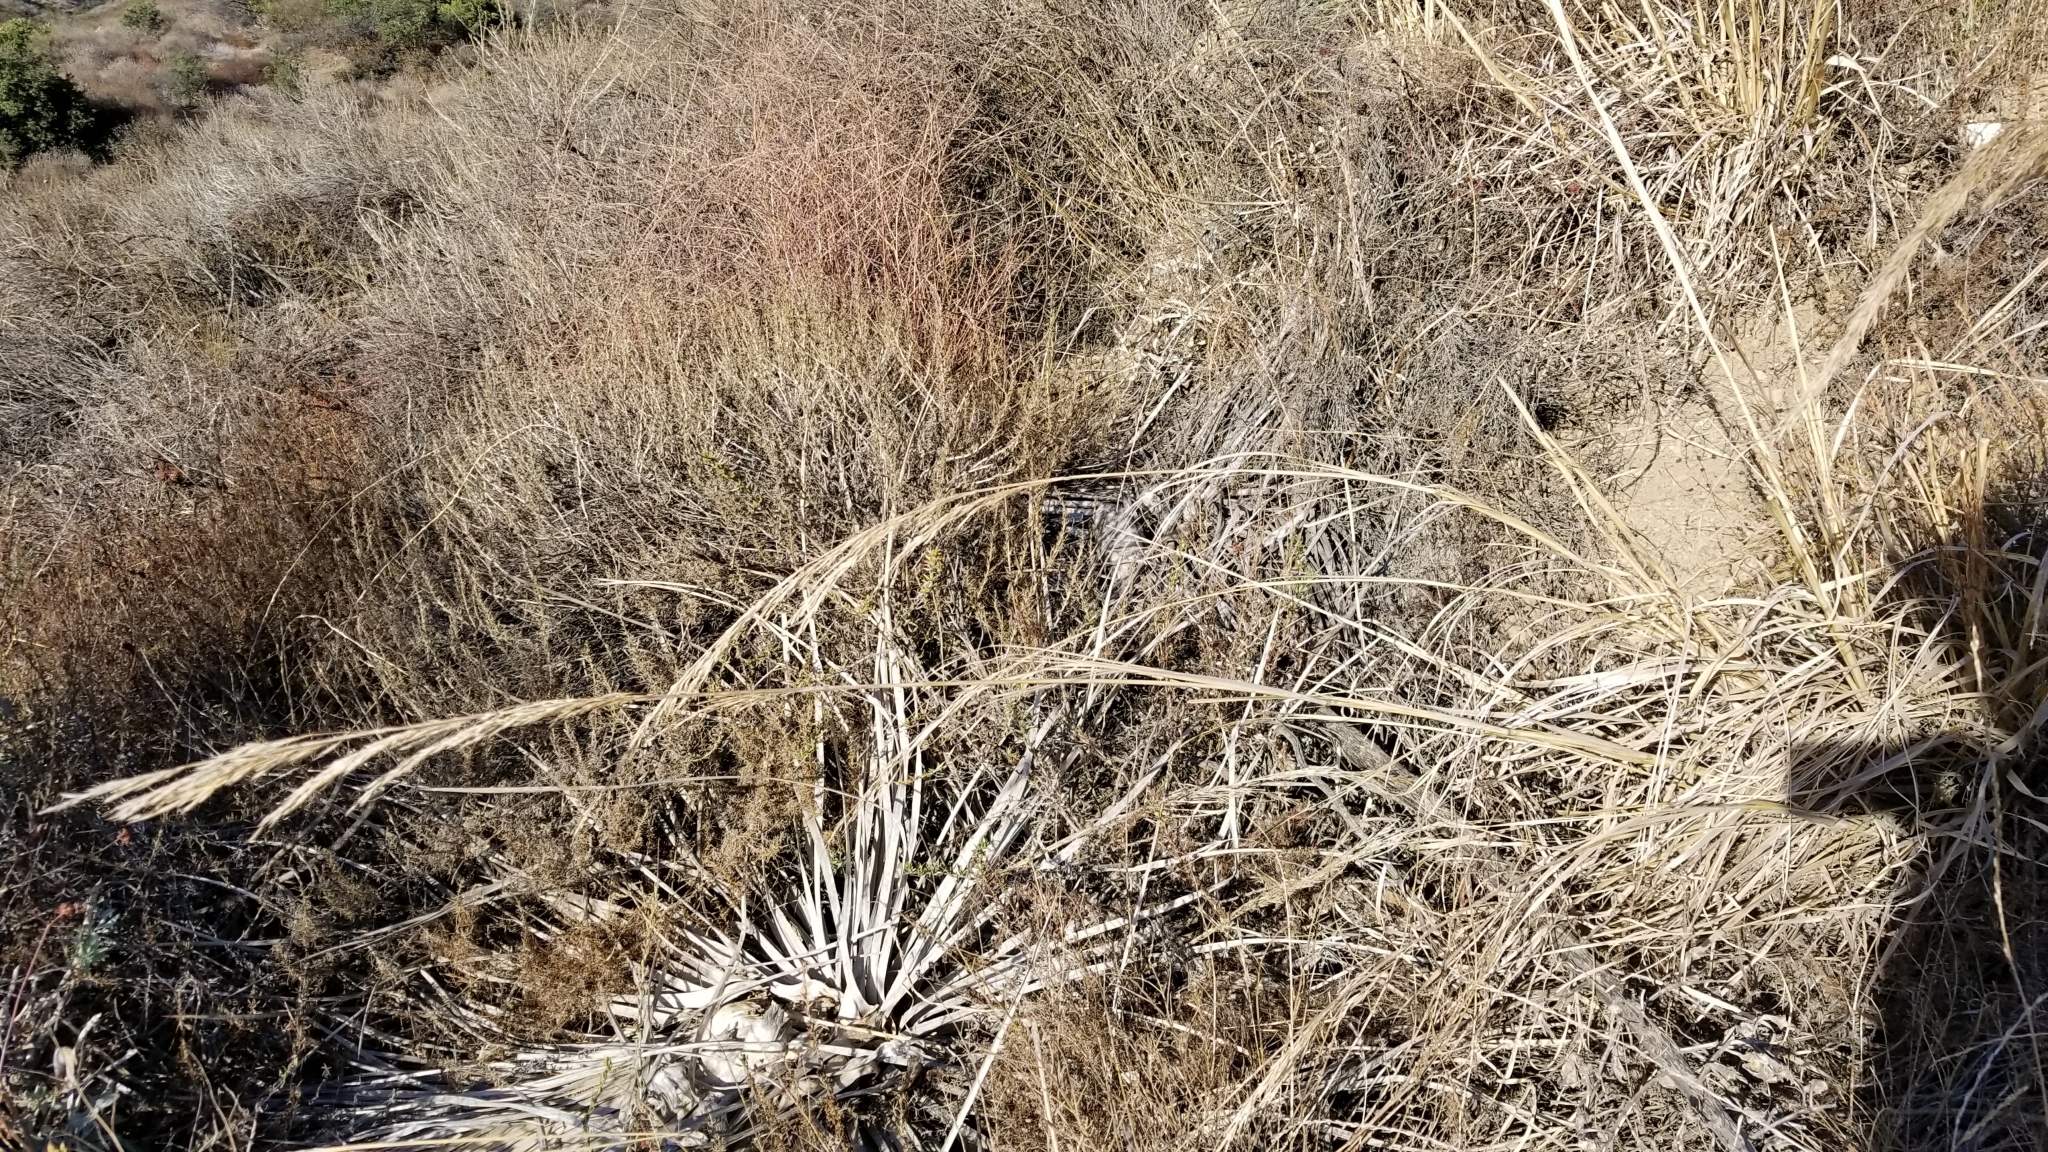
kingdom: Plantae
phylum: Tracheophyta
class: Liliopsida
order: Poales
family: Poaceae
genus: Eriocoma
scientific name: Eriocoma coronata
